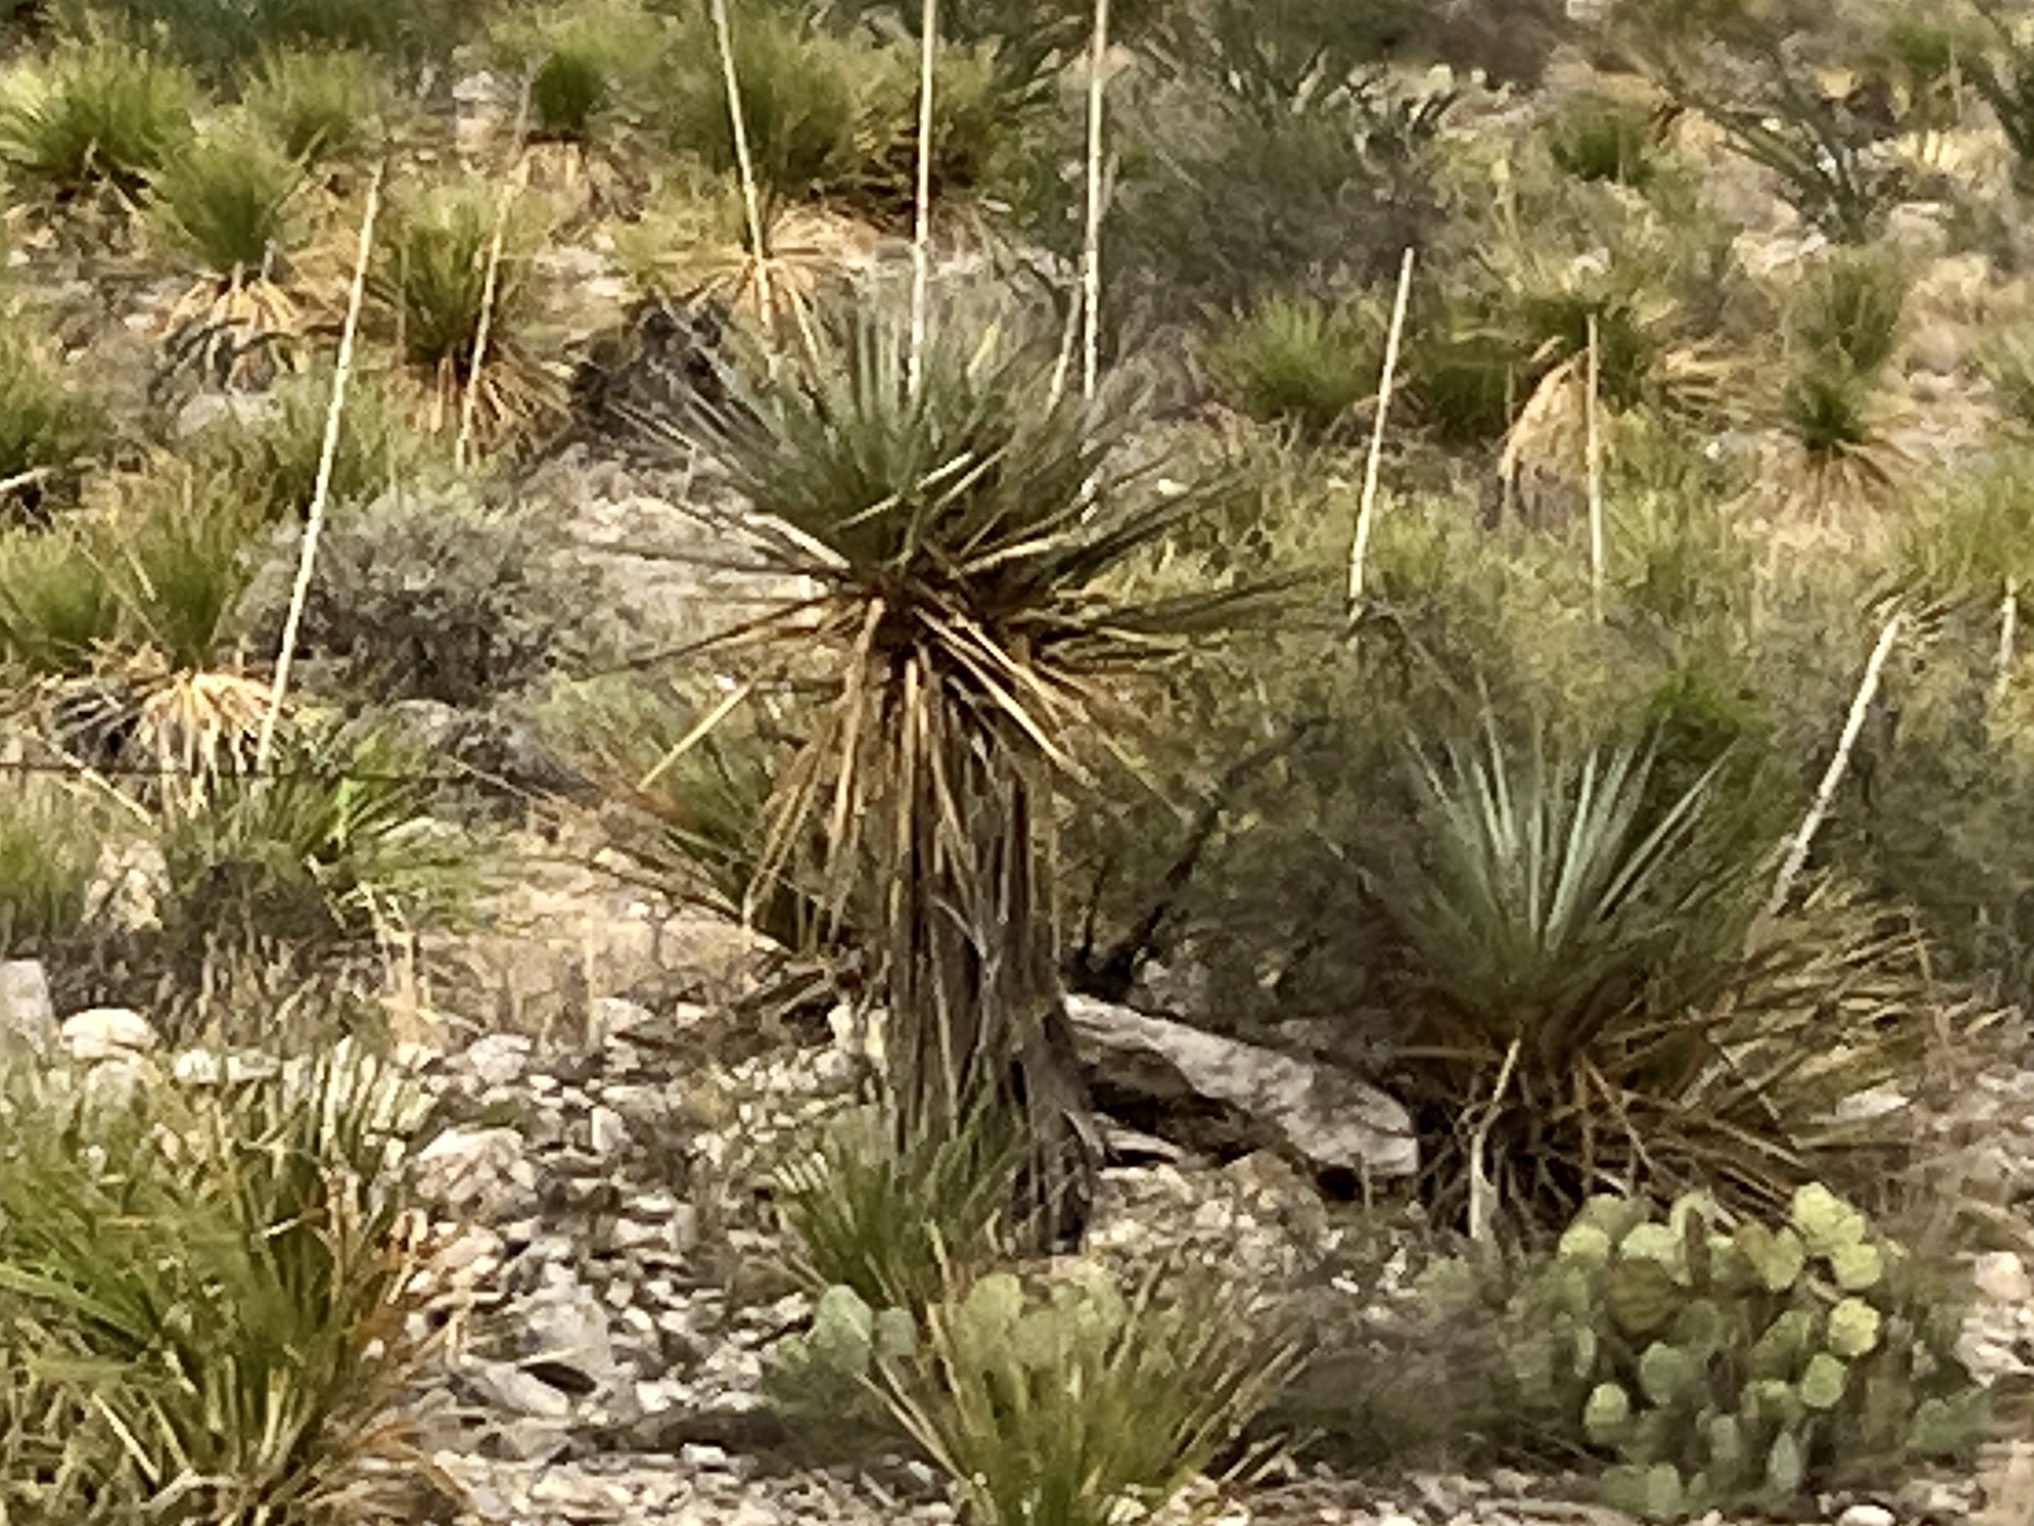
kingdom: Plantae
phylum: Tracheophyta
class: Liliopsida
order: Asparagales
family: Asparagaceae
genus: Yucca
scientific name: Yucca treculiana
